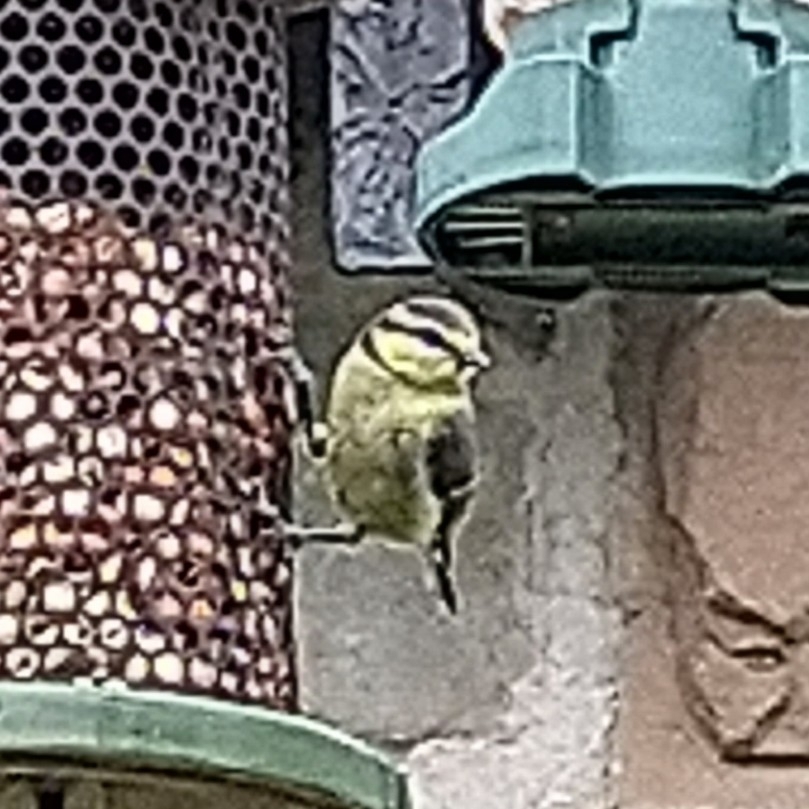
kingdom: Animalia
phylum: Chordata
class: Aves
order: Passeriformes
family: Paridae
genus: Cyanistes
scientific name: Cyanistes caeruleus
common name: Eurasian blue tit
